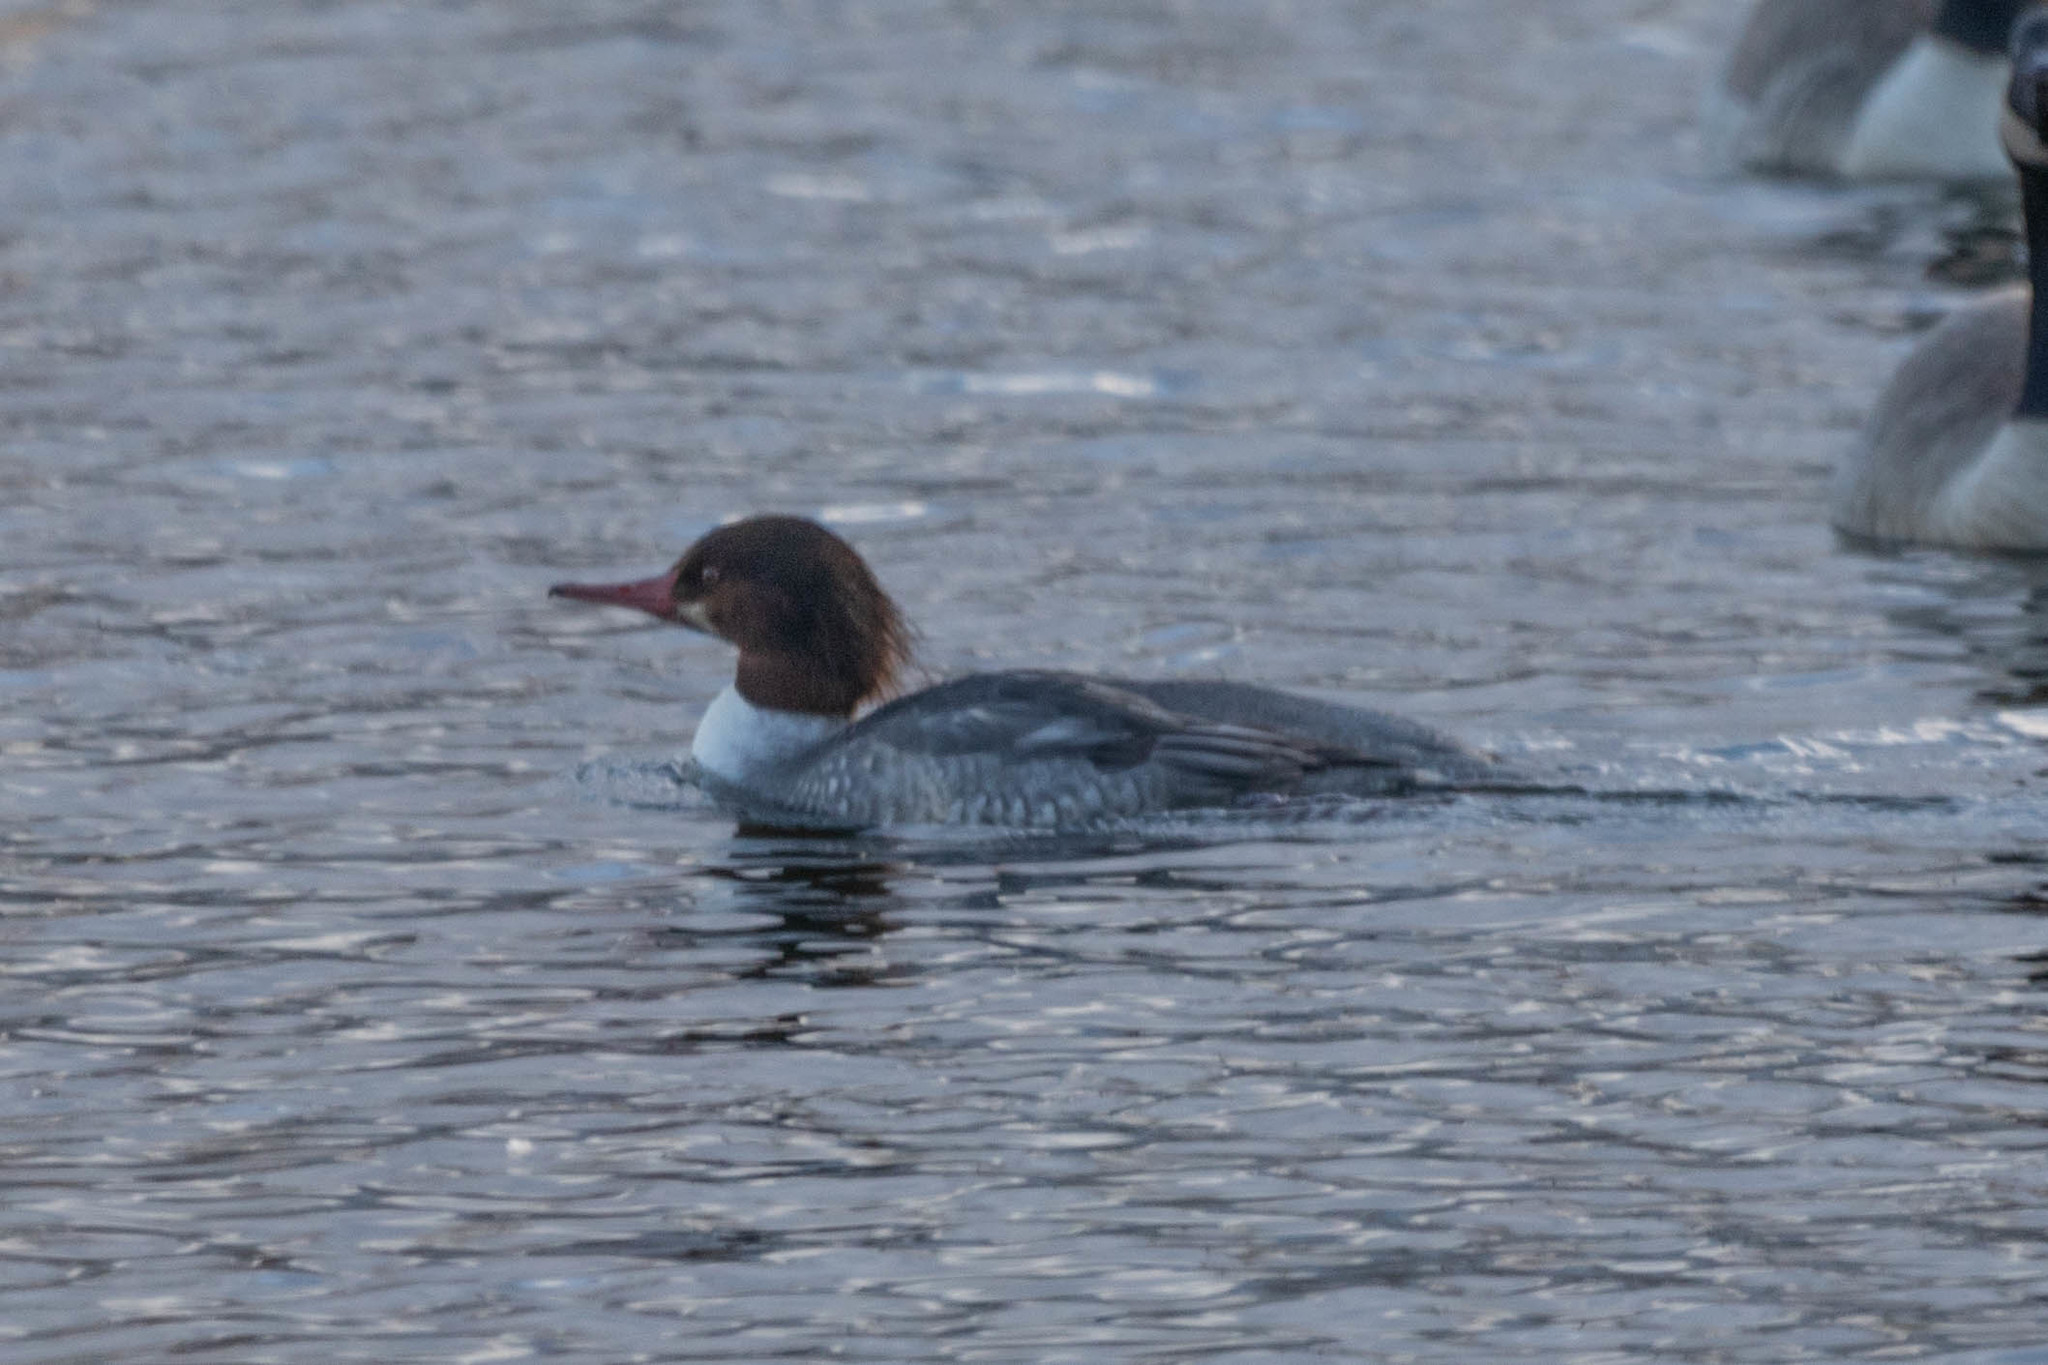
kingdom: Animalia
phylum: Chordata
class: Aves
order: Anseriformes
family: Anatidae
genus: Mergus
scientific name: Mergus merganser
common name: Common merganser
